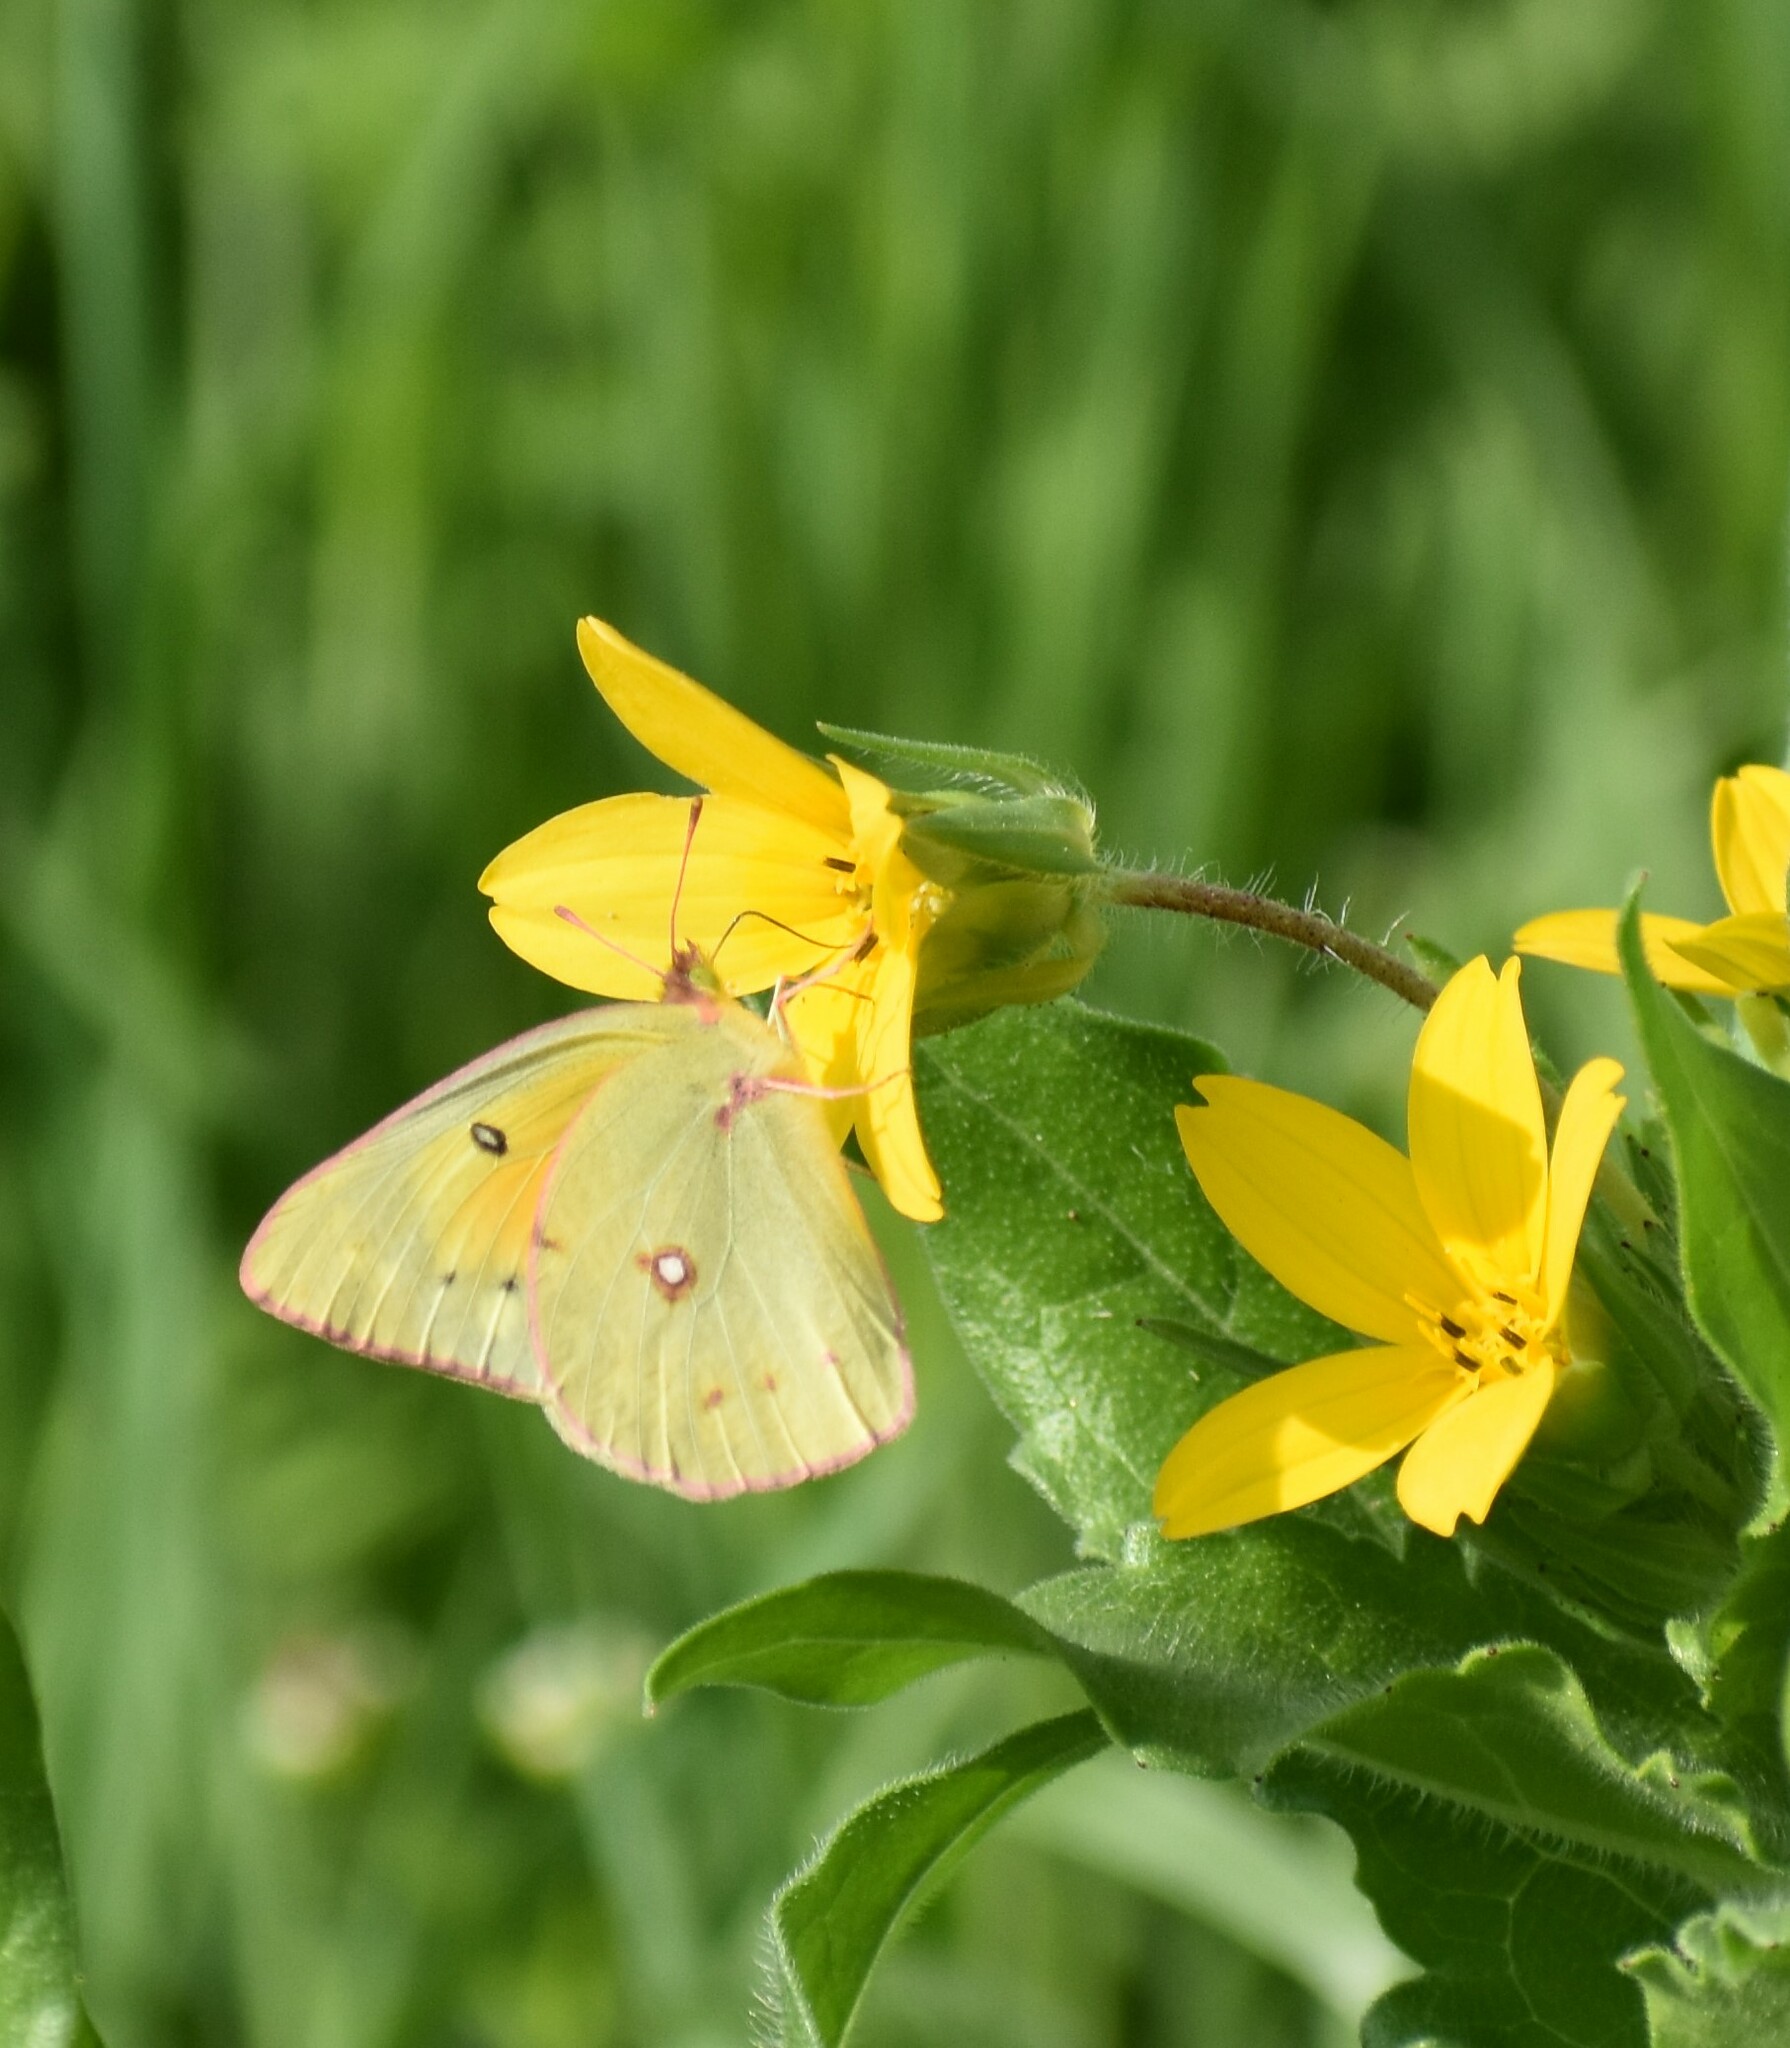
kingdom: Animalia
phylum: Arthropoda
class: Insecta
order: Lepidoptera
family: Pieridae
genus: Colias
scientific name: Colias eurytheme
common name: Alfalfa butterfly
